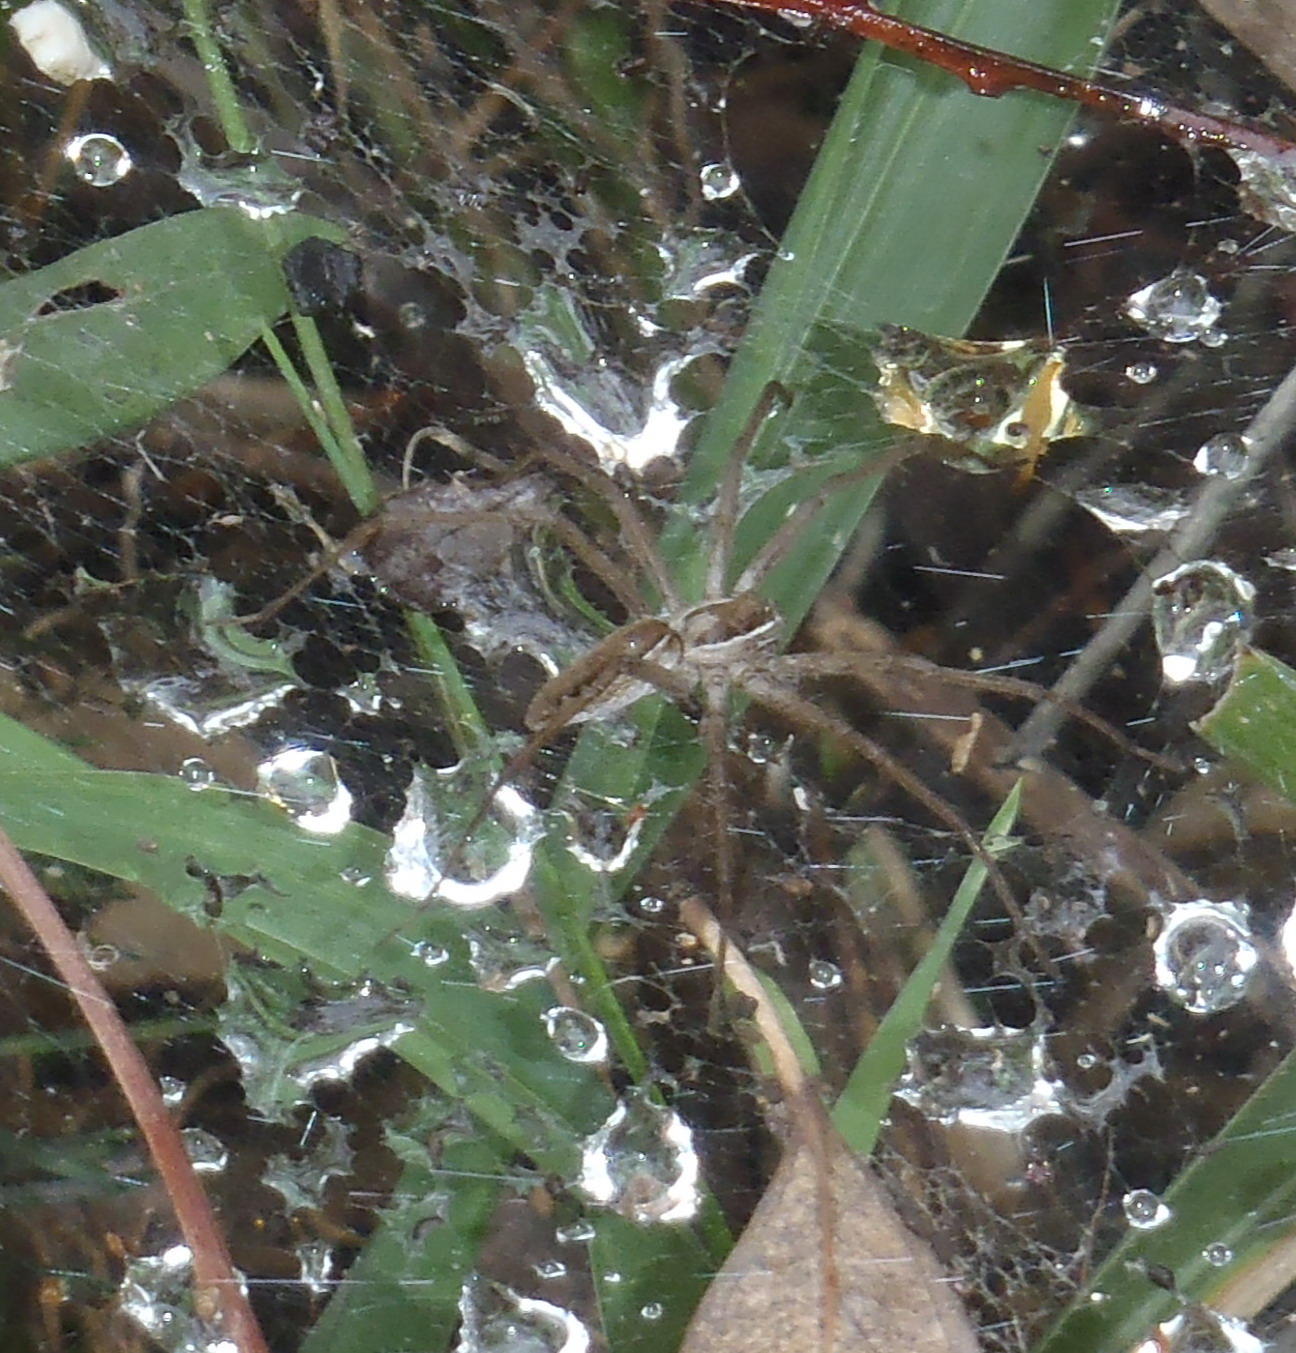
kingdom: Animalia
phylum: Arthropoda
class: Arachnida
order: Araneae
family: Pisauridae
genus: Euprosthenopsis
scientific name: Euprosthenopsis pulchella
